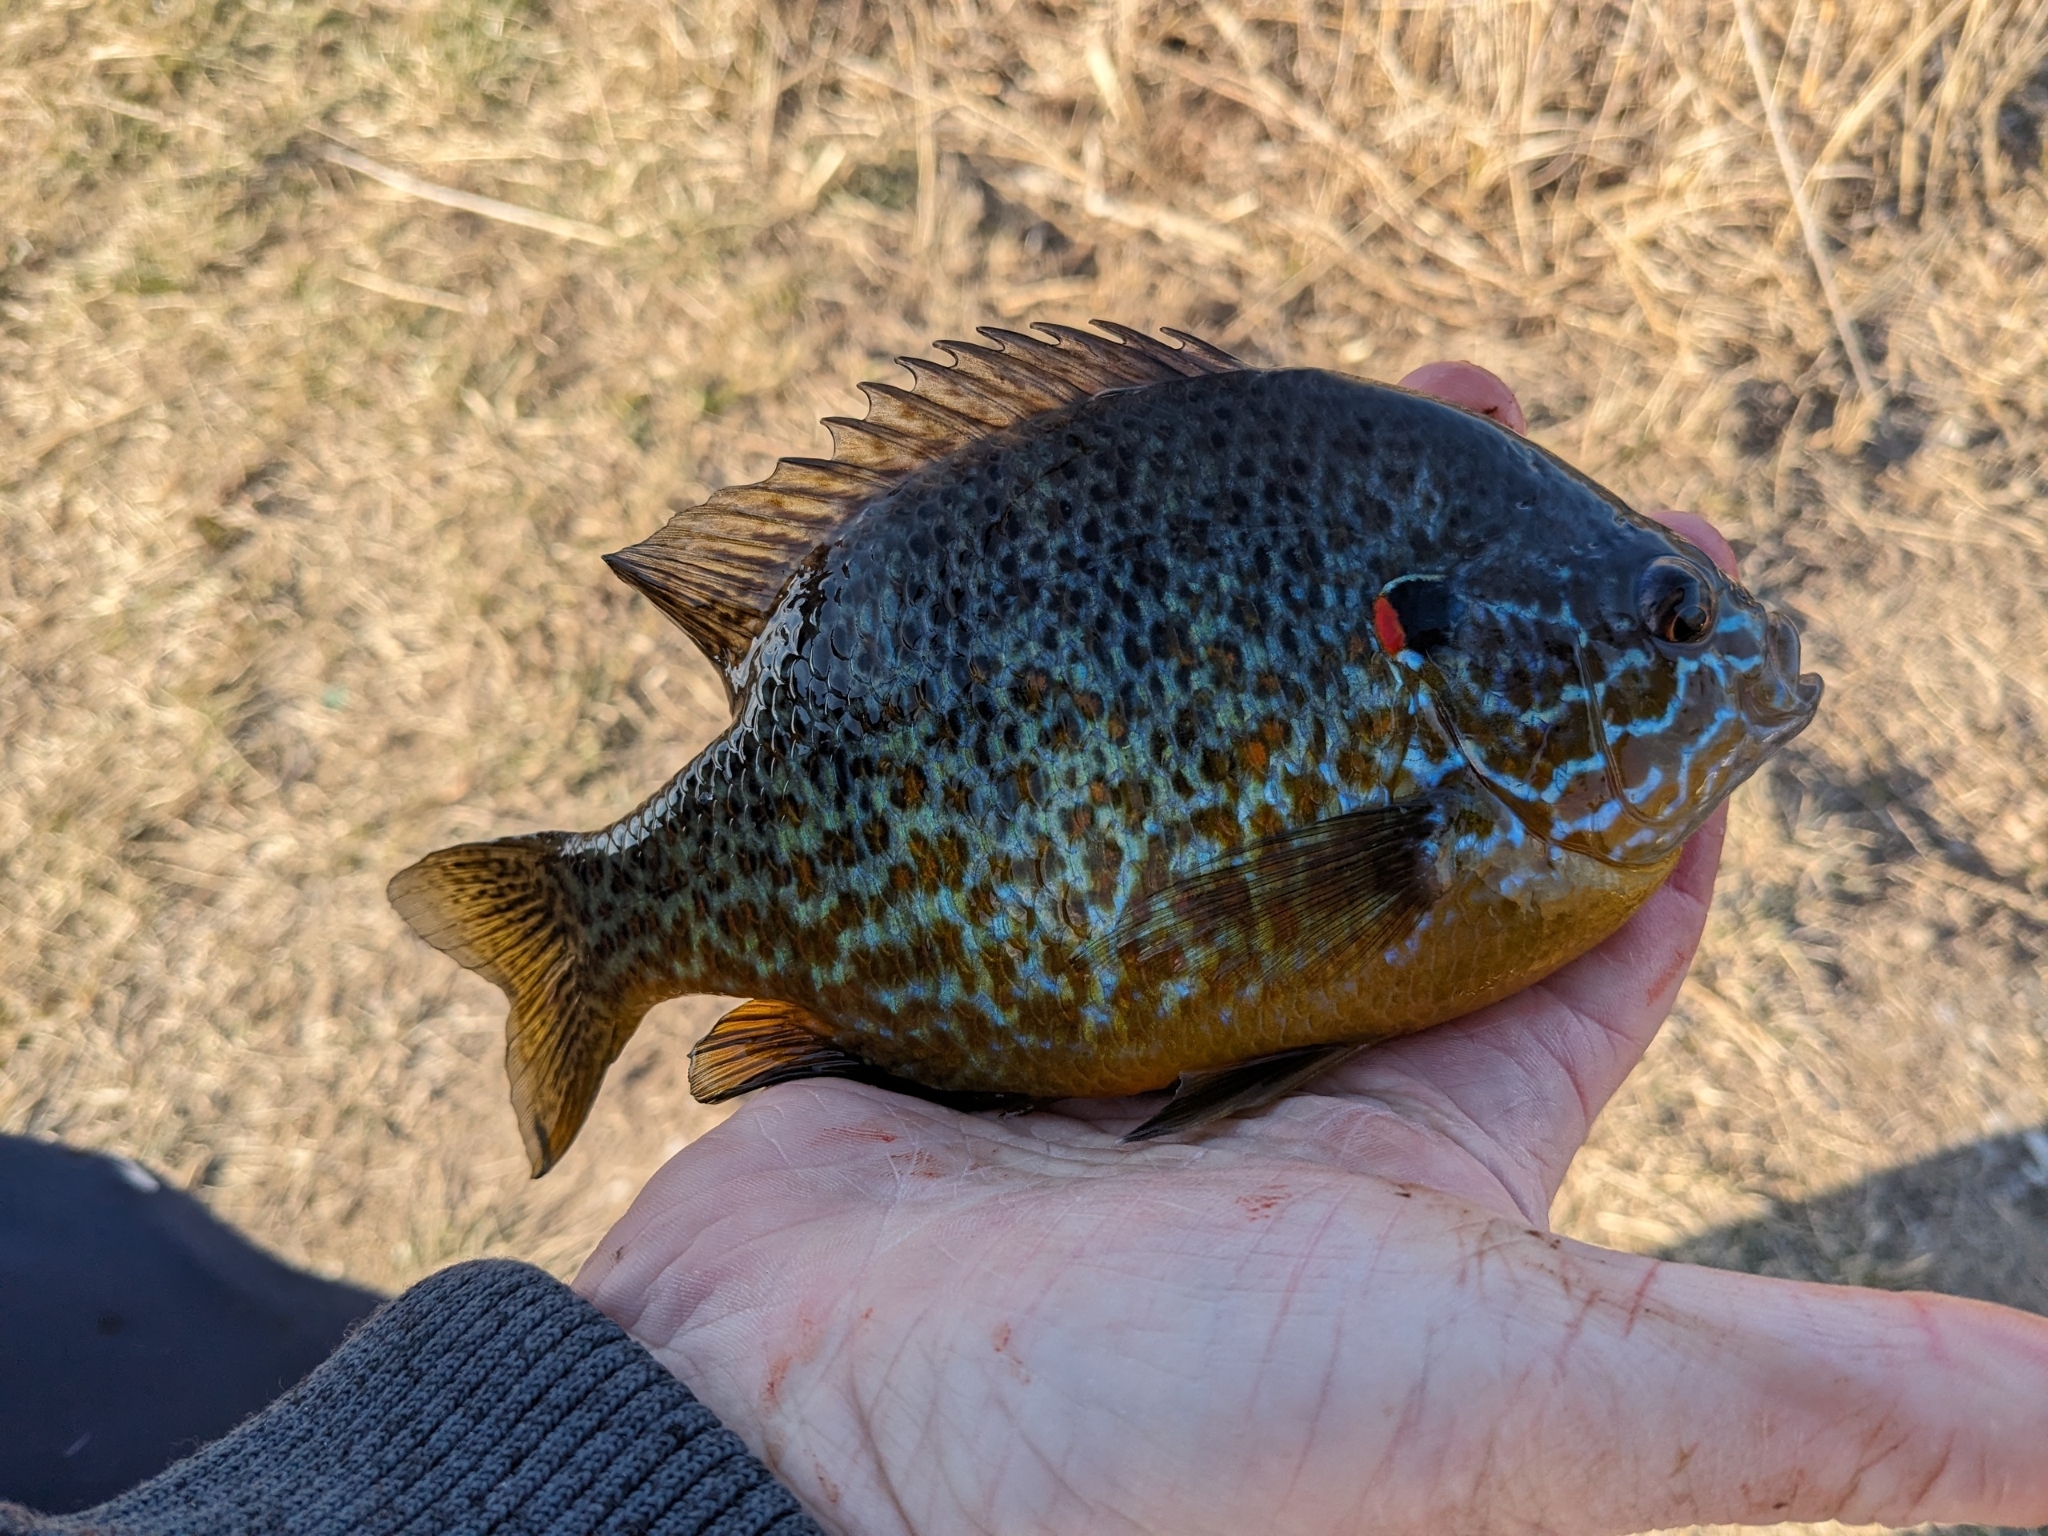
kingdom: Animalia
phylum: Chordata
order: Perciformes
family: Centrarchidae
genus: Lepomis
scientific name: Lepomis gibbosus
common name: Pumpkinseed
